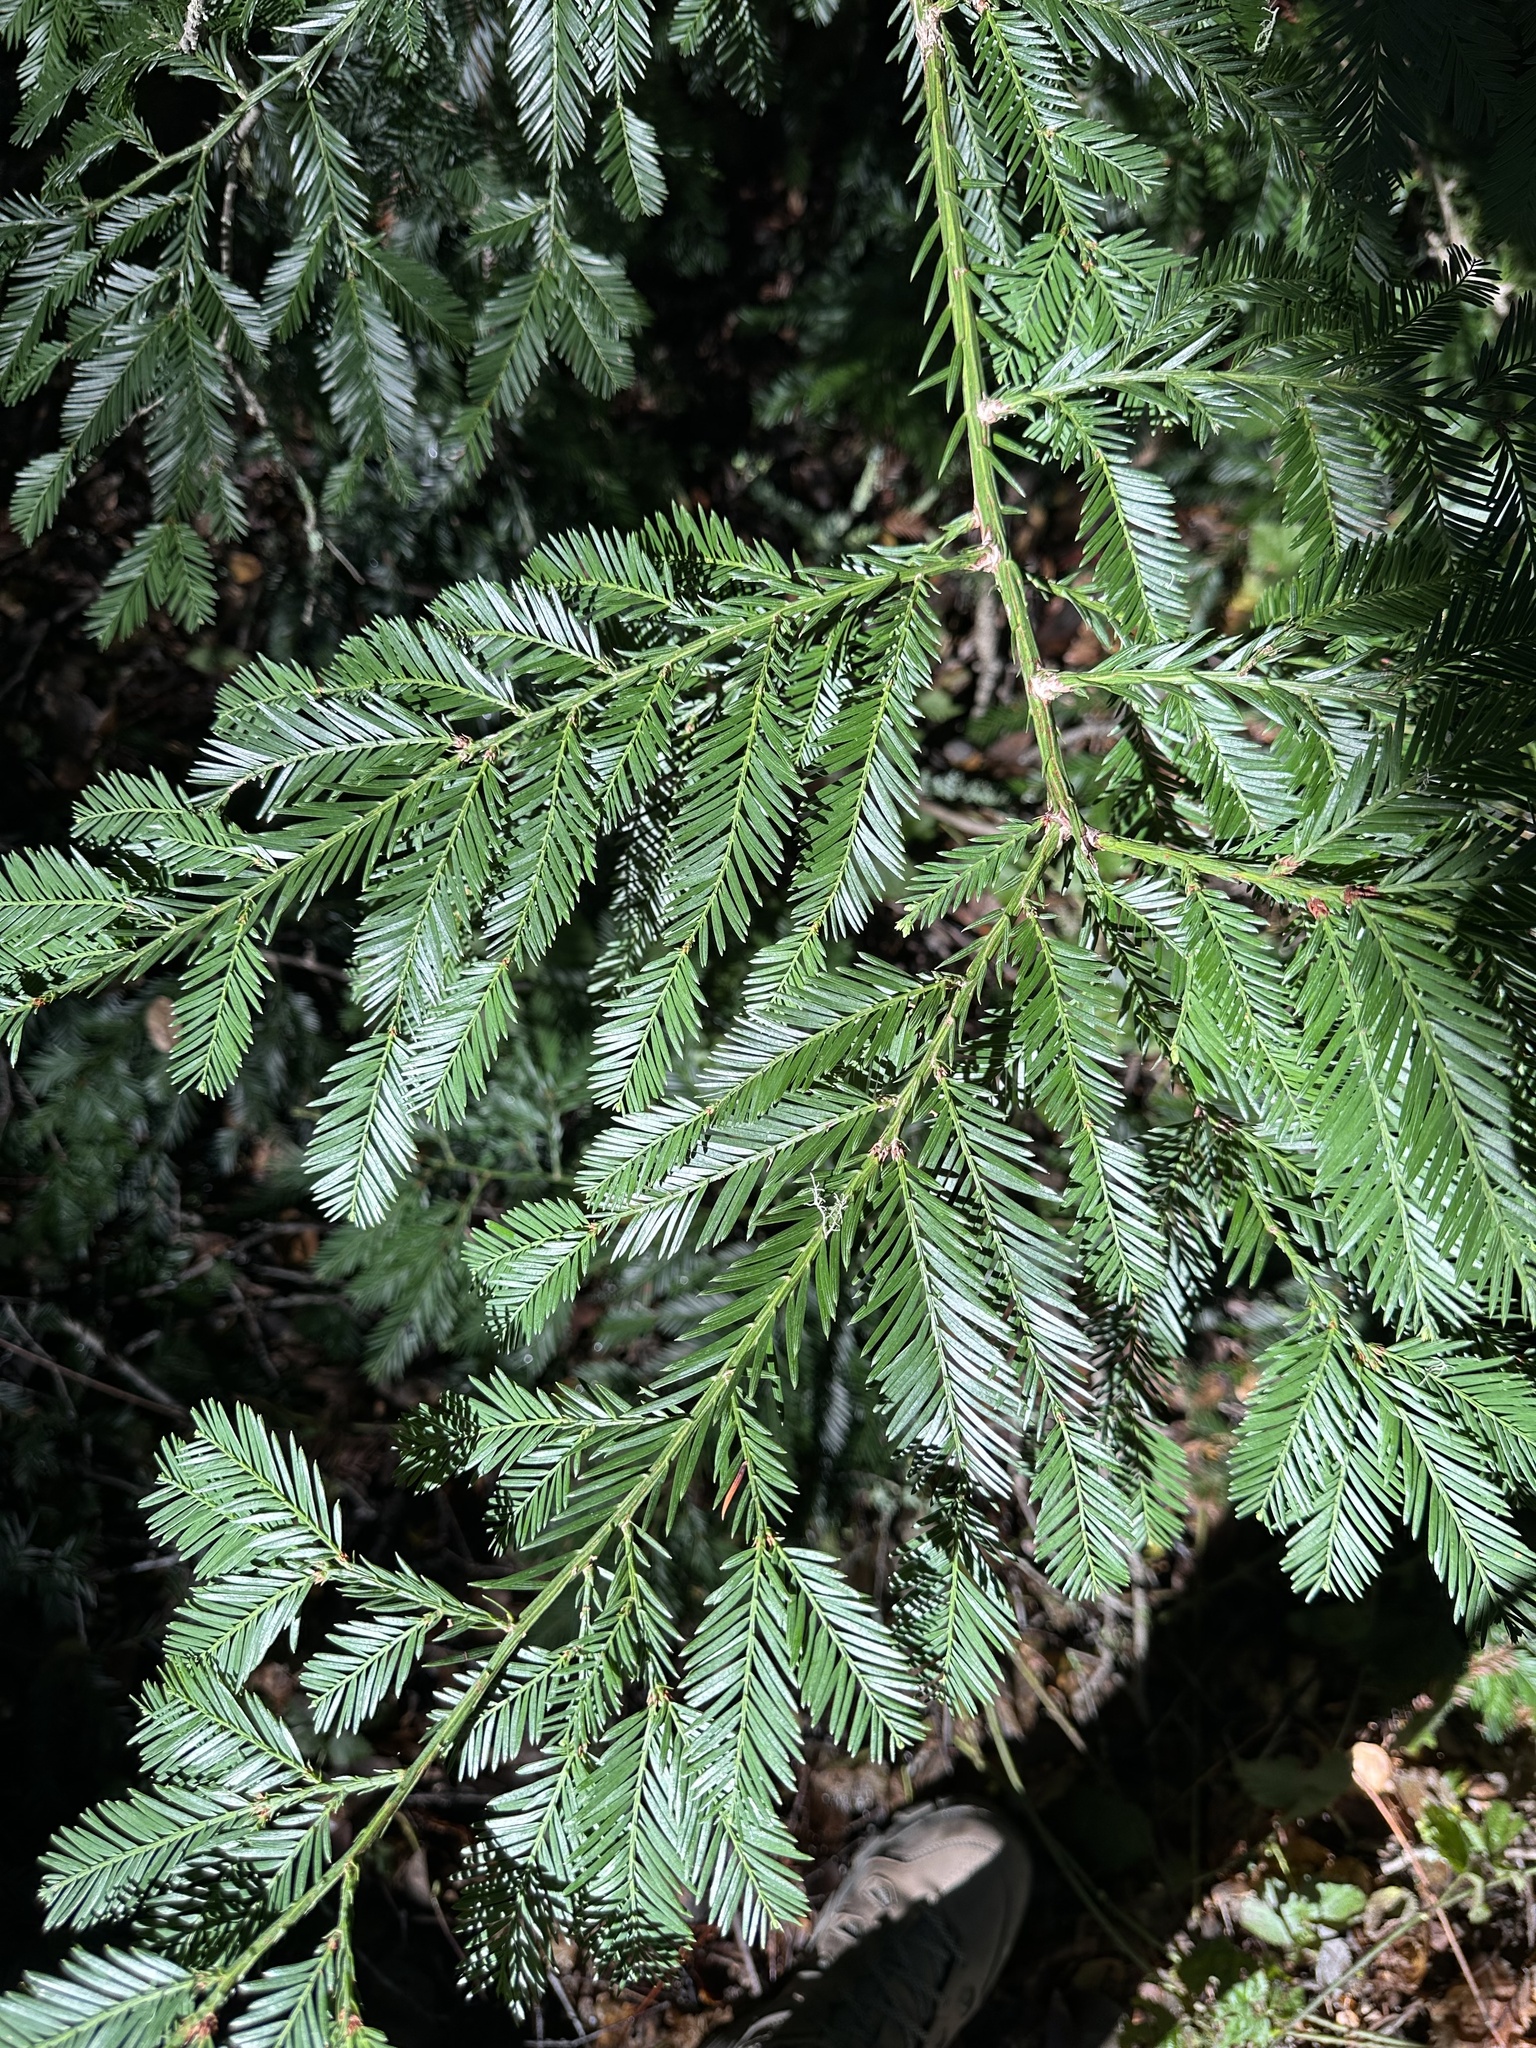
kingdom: Plantae
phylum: Tracheophyta
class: Pinopsida
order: Pinales
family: Cupressaceae
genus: Sequoia
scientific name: Sequoia sempervirens
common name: Coast redwood
